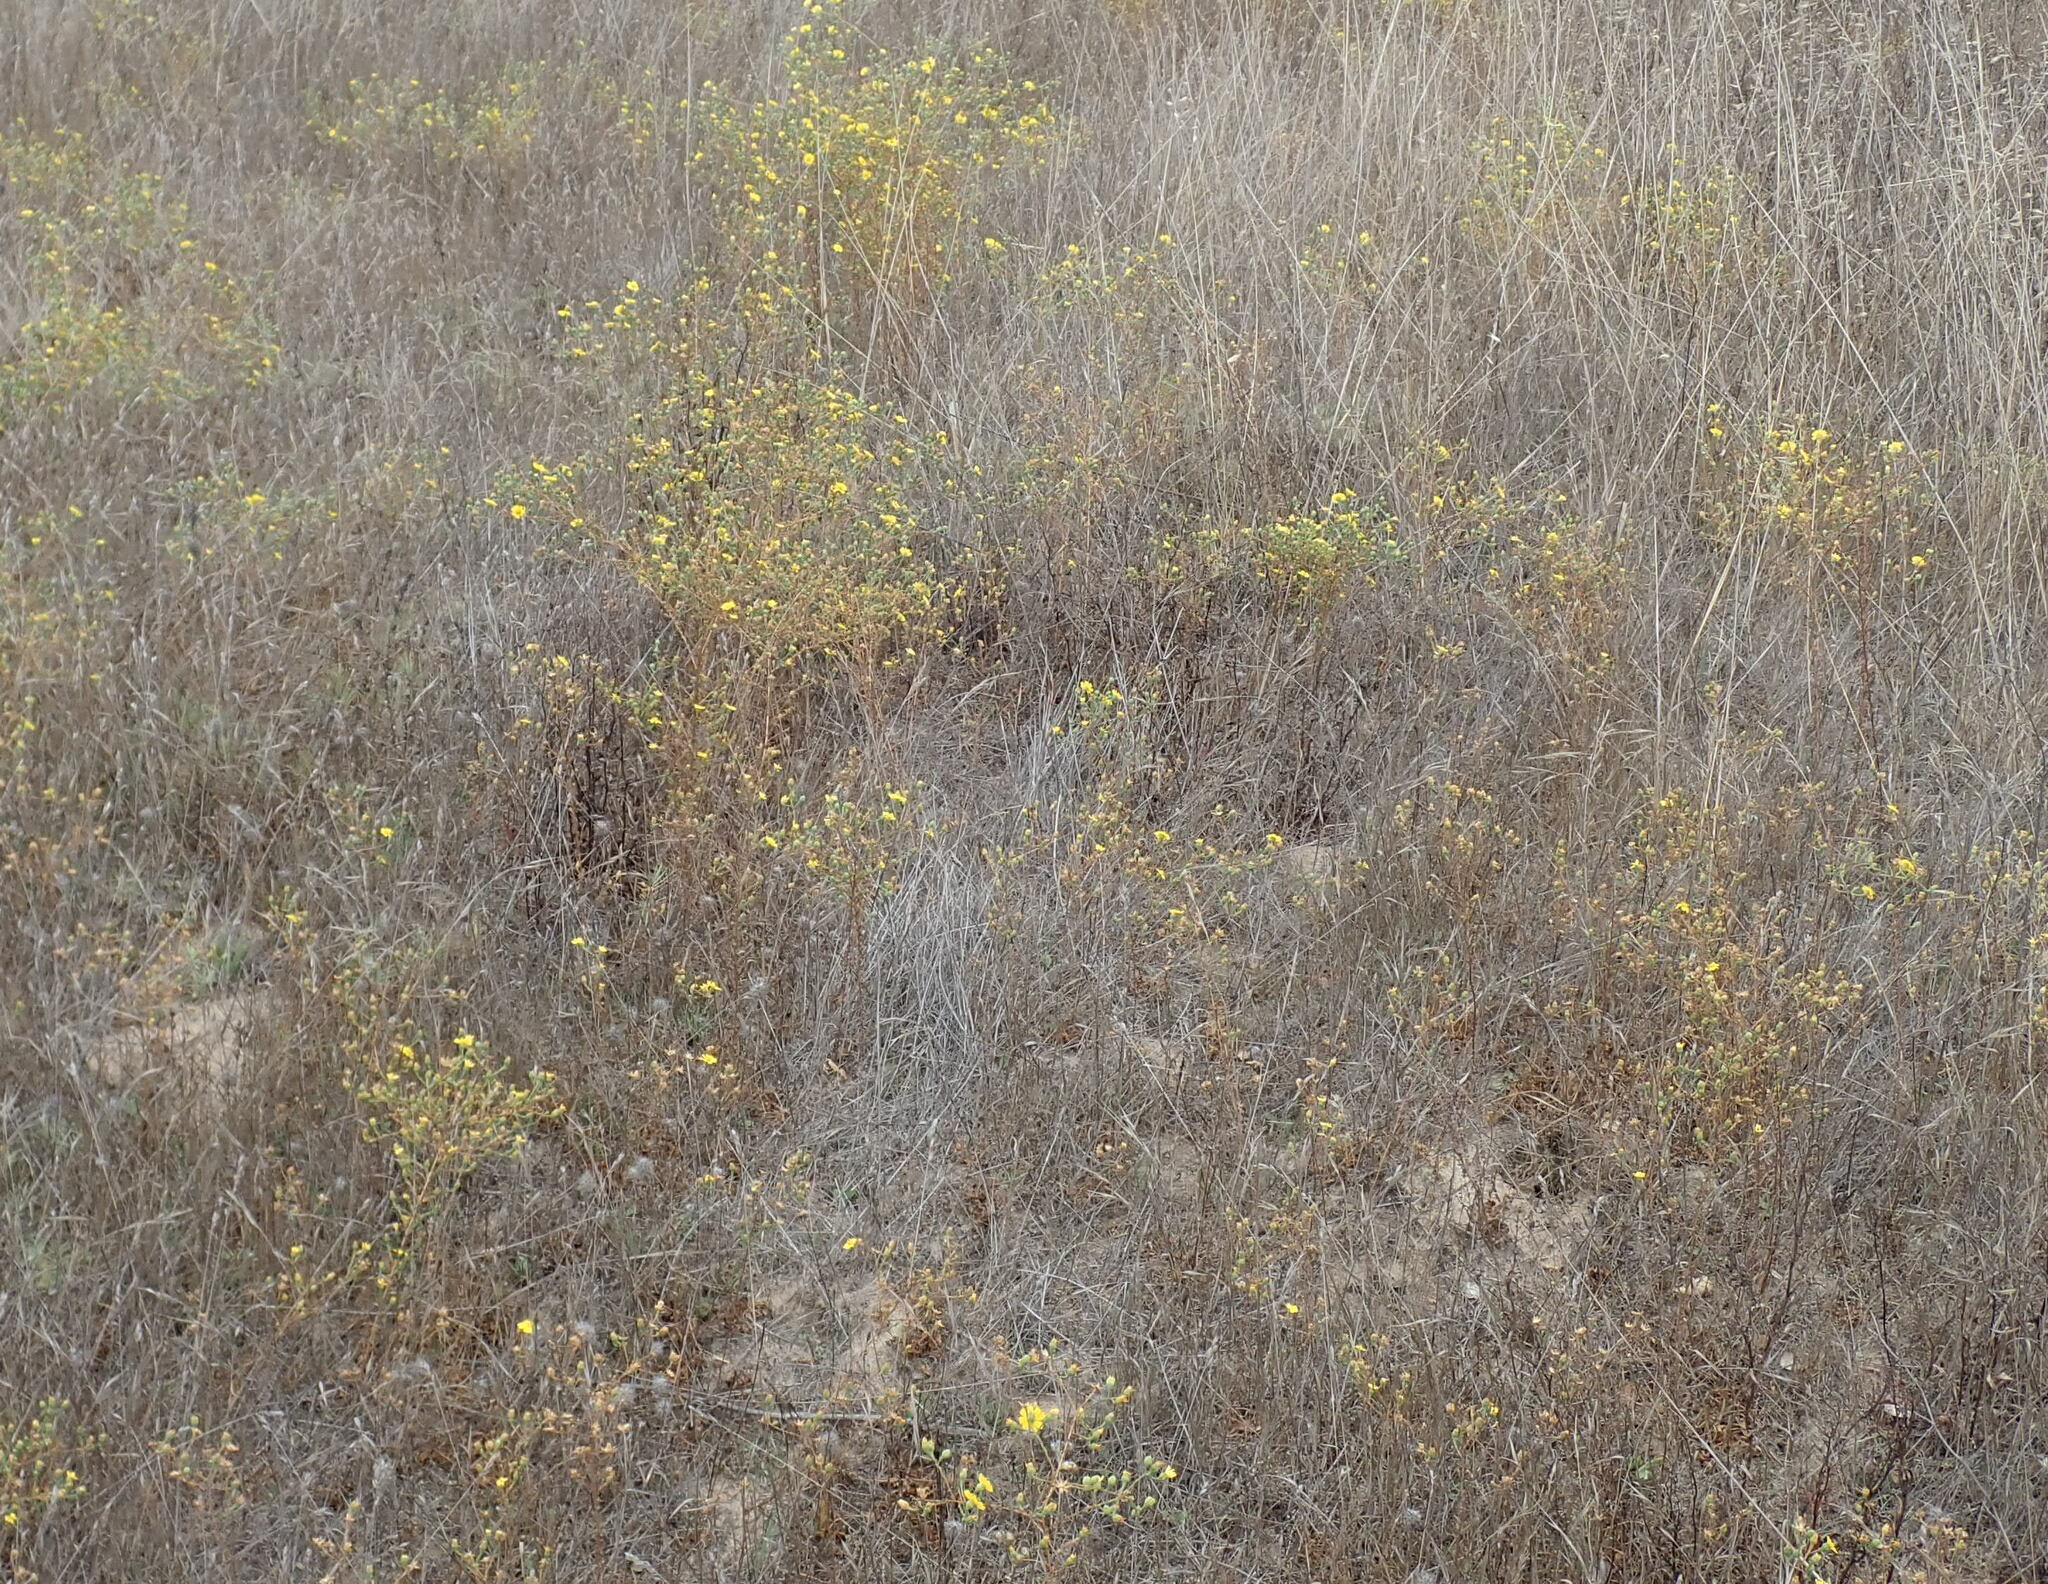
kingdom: Plantae
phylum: Tracheophyta
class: Magnoliopsida
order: Asterales
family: Asteraceae
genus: Deinandra
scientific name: Deinandra paniculata
